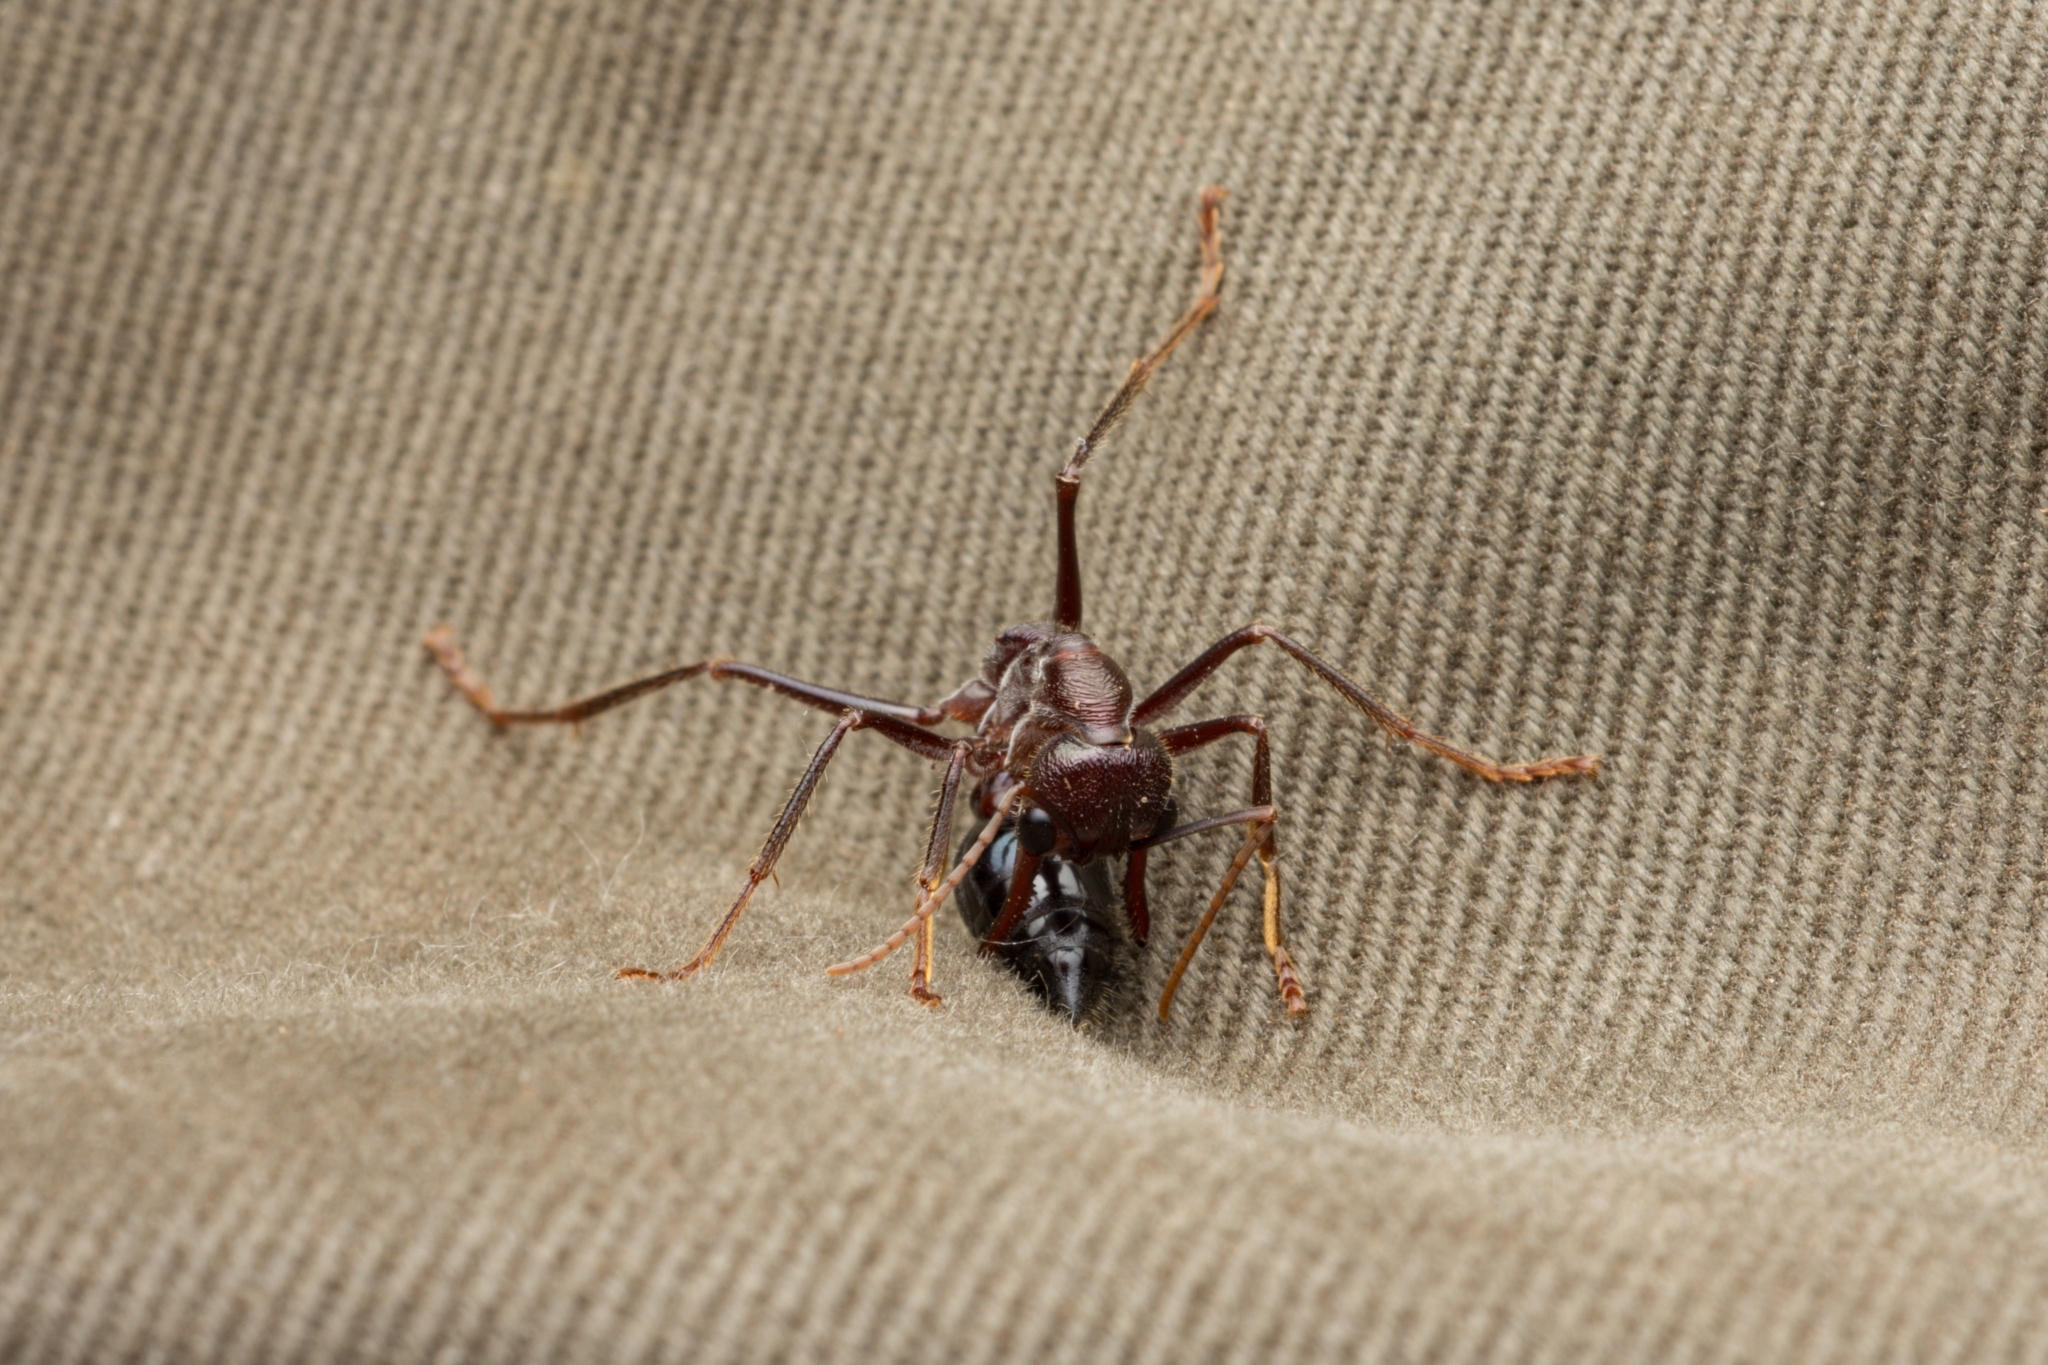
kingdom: Animalia
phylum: Arthropoda
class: Insecta
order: Hymenoptera
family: Formicidae
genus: Myrmecia
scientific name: Myrmecia forficata
